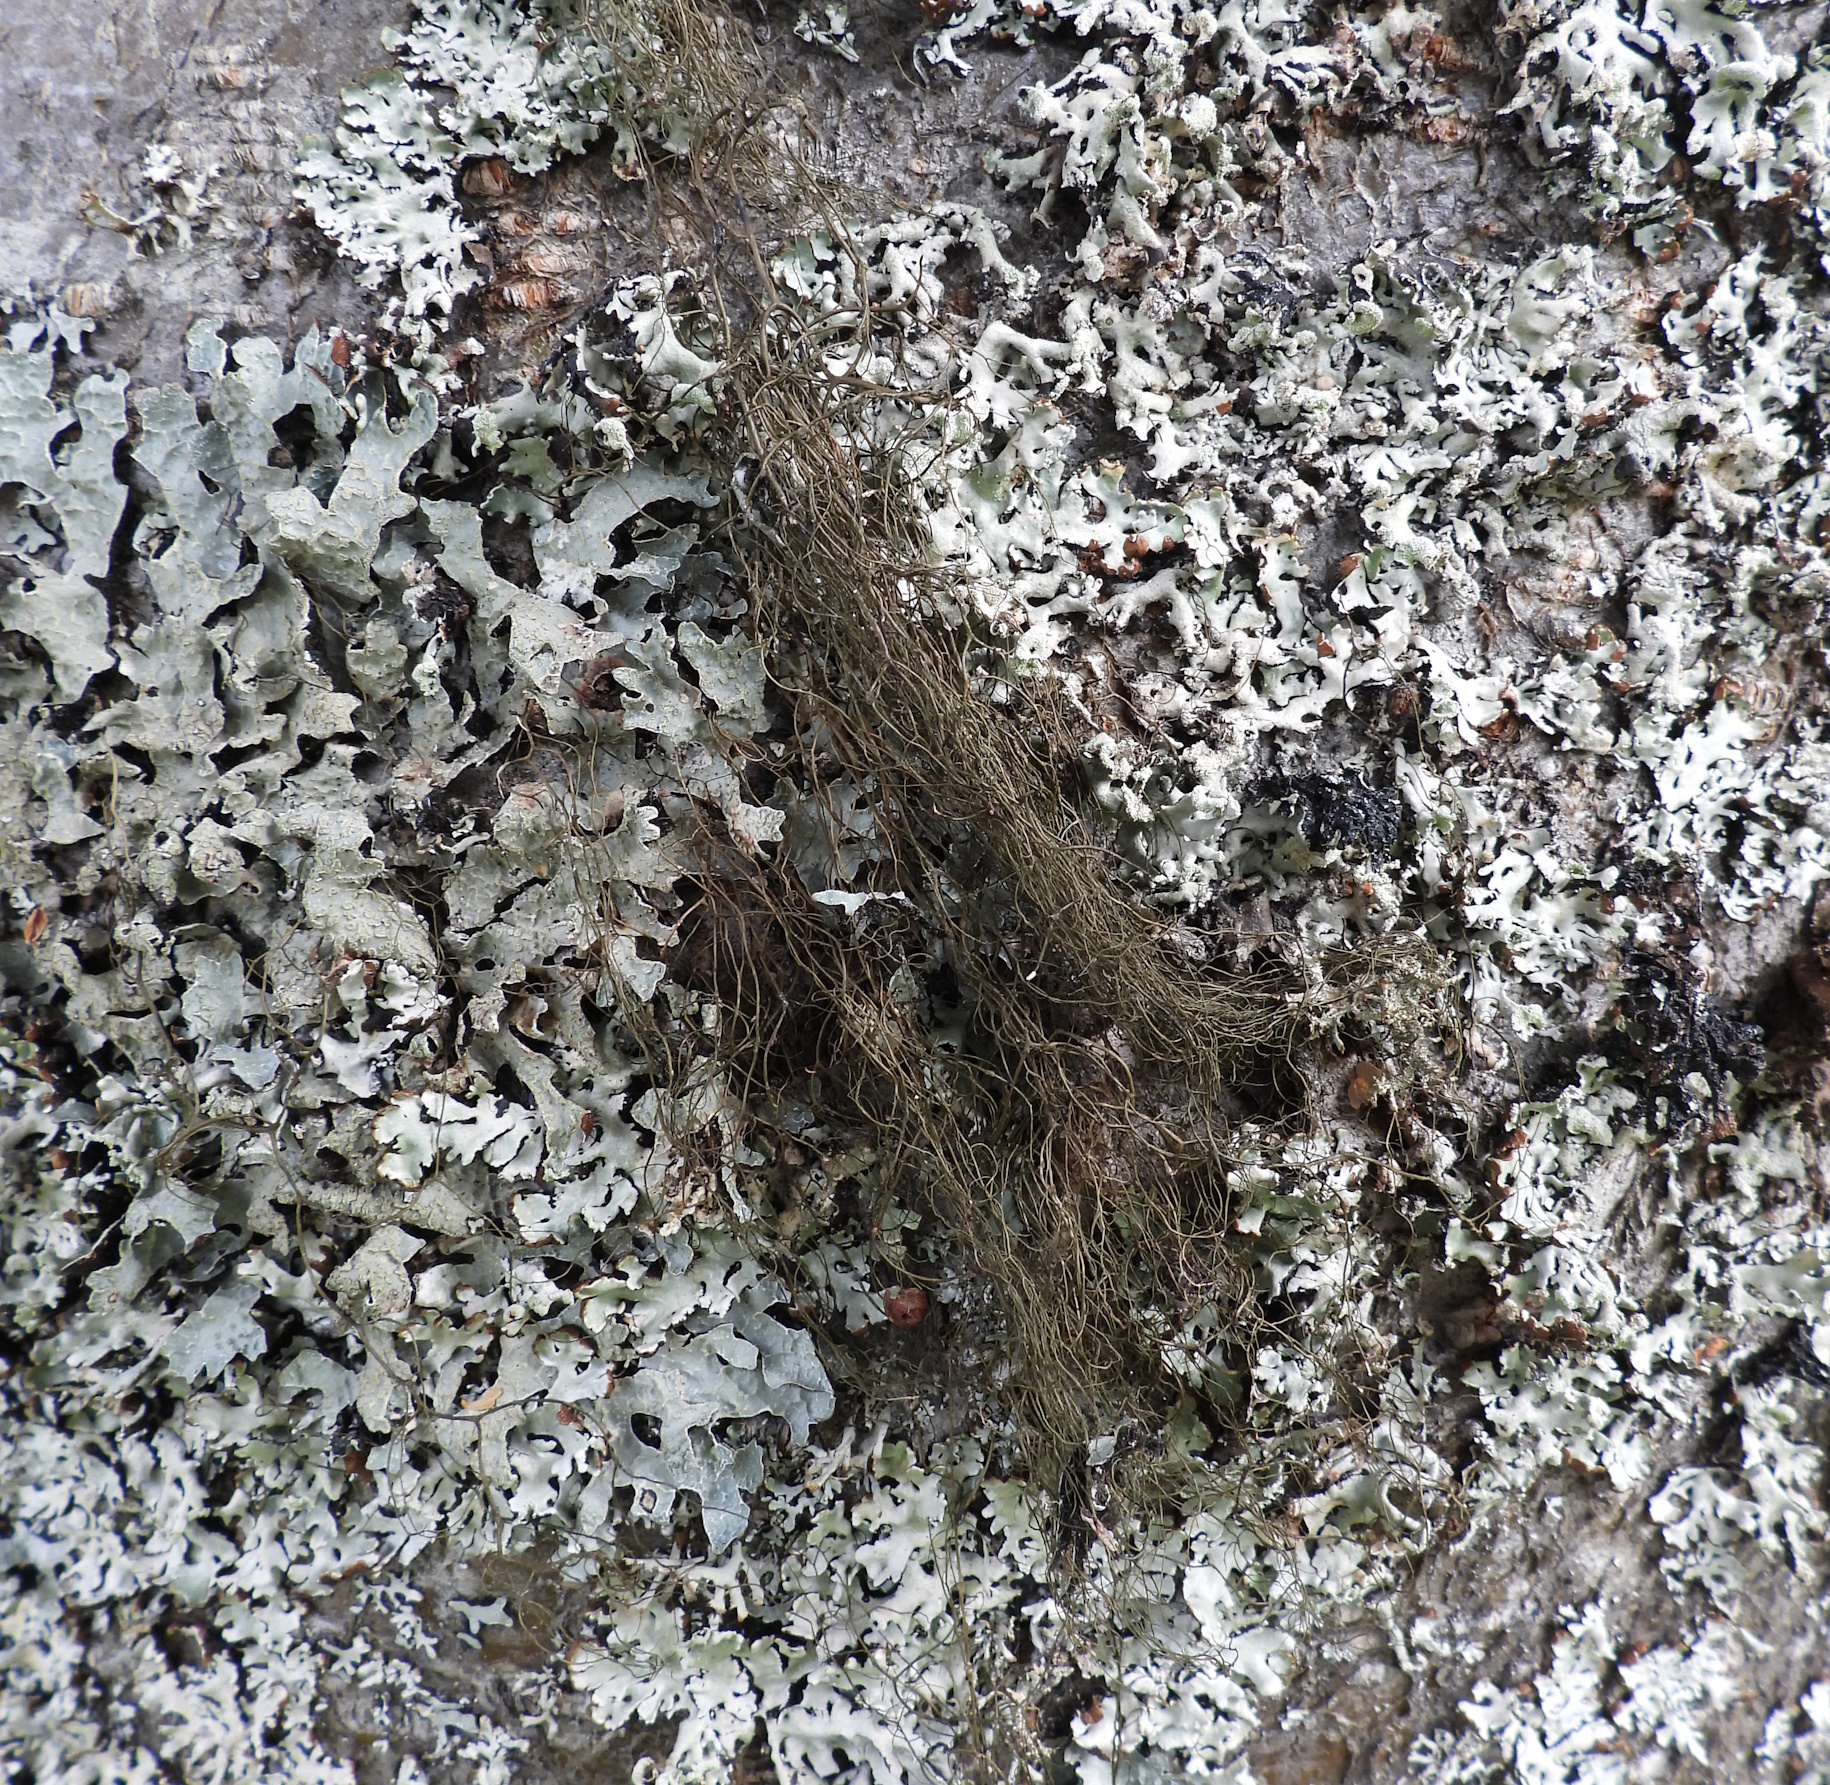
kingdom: Fungi
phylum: Ascomycota
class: Lecanoromycetes
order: Lecanorales
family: Parmeliaceae
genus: Bryoria
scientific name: Bryoria fuscescens
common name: Pale-footed horsehair lichen
